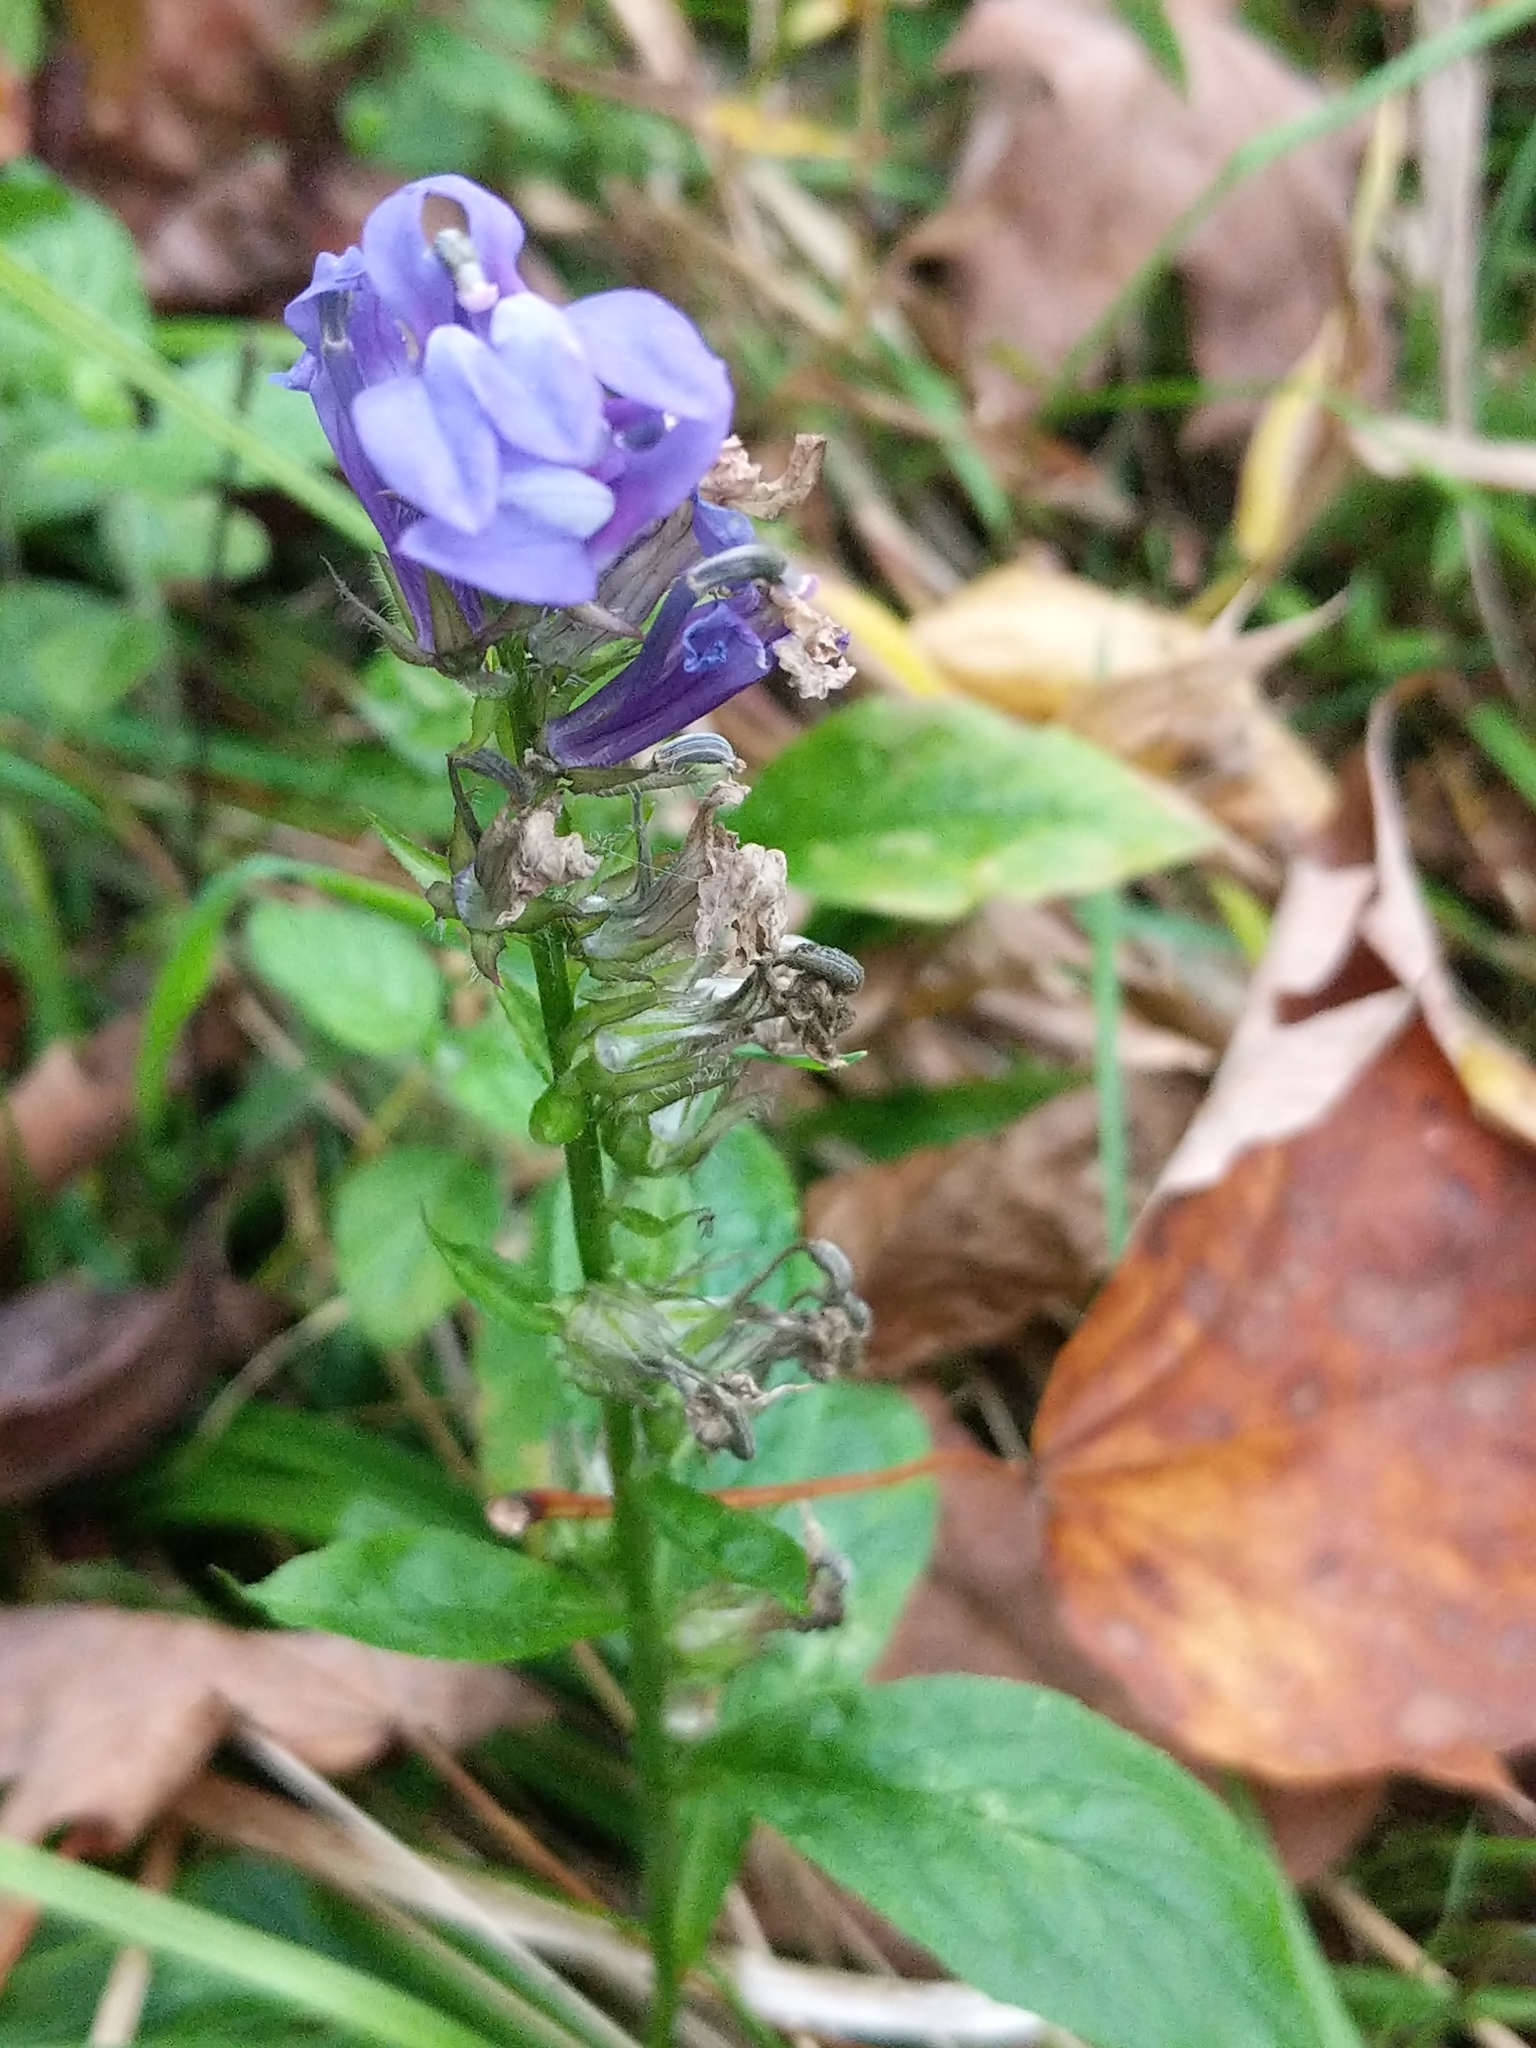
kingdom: Plantae
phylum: Tracheophyta
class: Magnoliopsida
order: Asterales
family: Campanulaceae
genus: Lobelia
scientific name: Lobelia siphilitica
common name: Great lobelia
